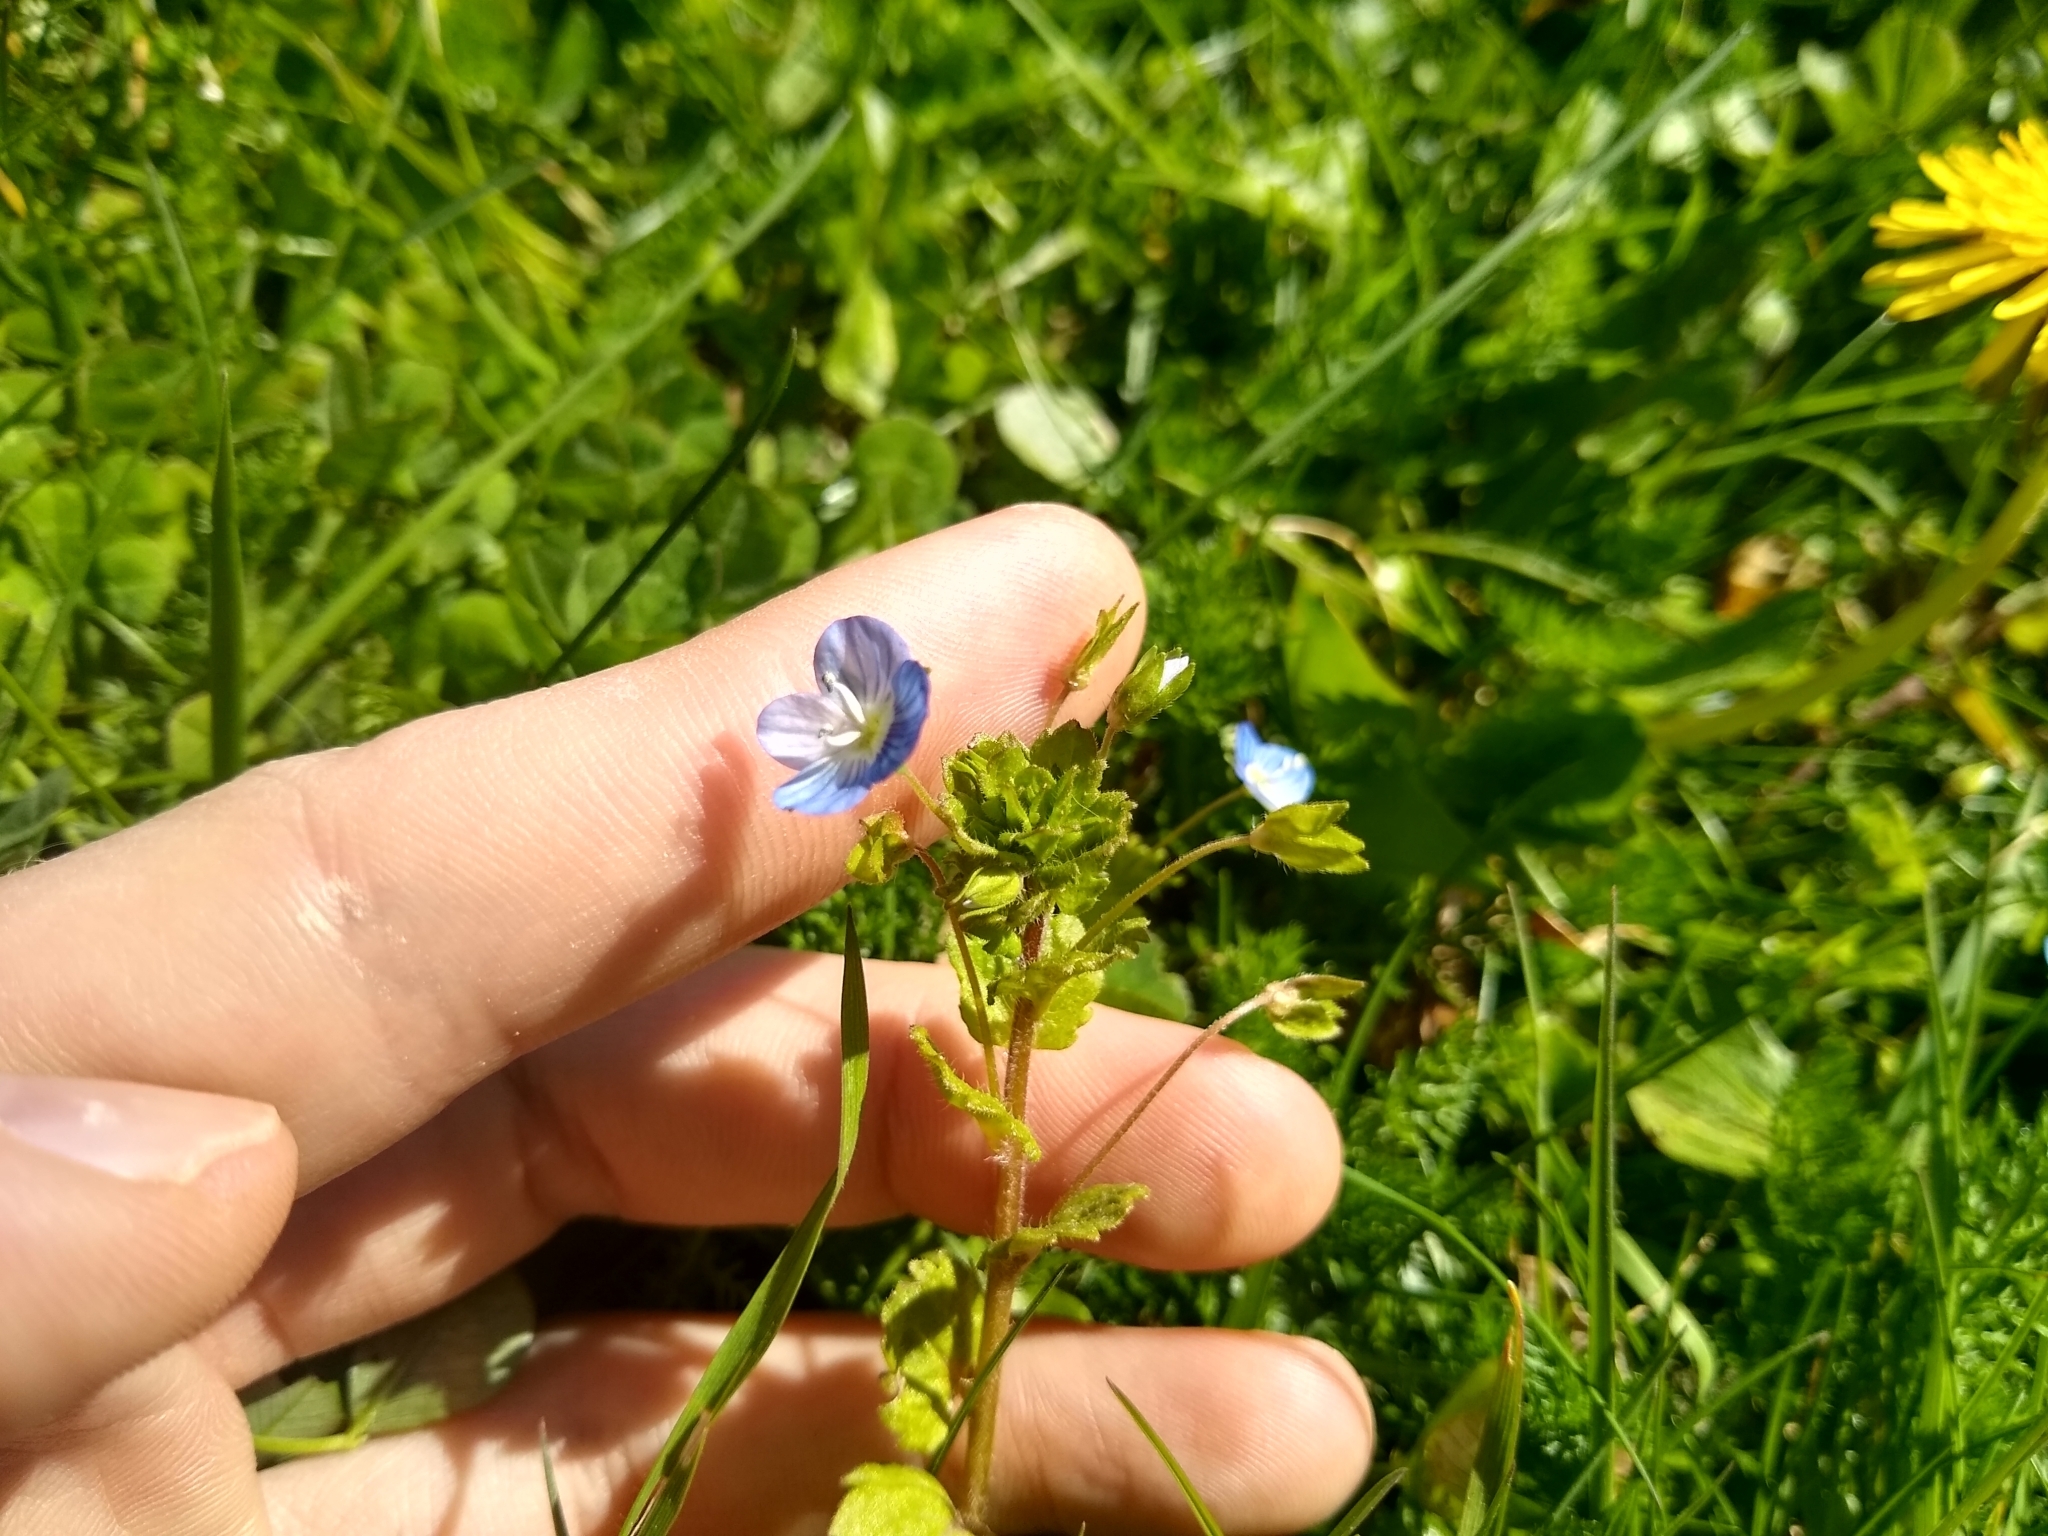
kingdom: Plantae
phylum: Tracheophyta
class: Magnoliopsida
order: Lamiales
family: Plantaginaceae
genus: Veronica
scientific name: Veronica persica
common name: Common field-speedwell
